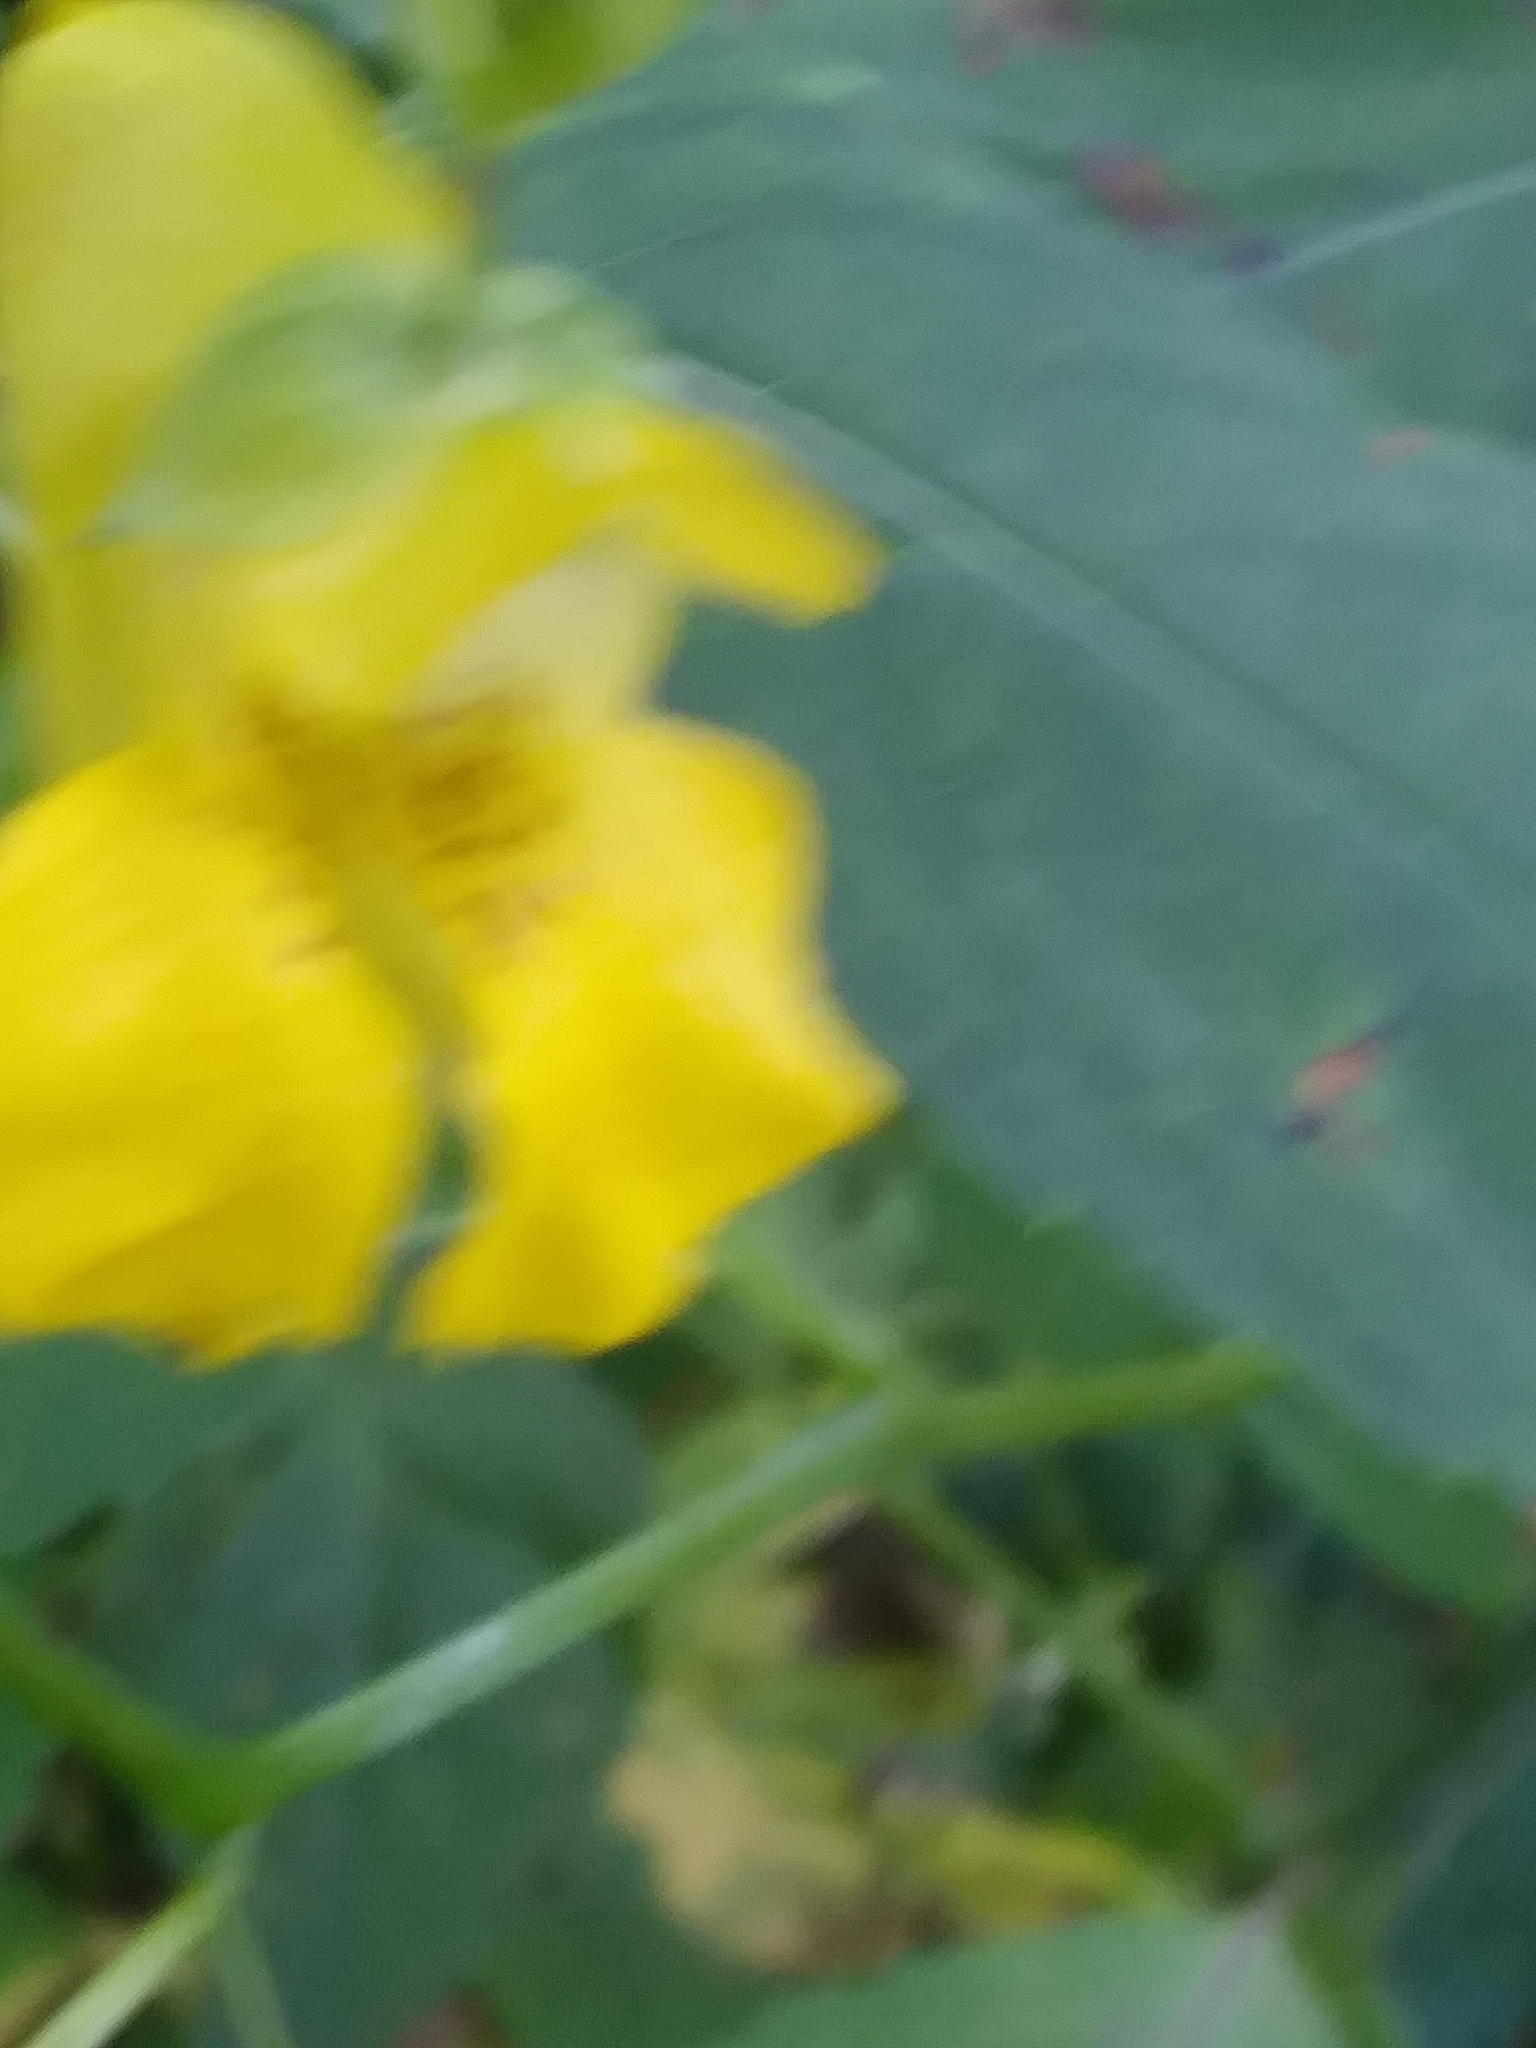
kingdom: Plantae
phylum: Tracheophyta
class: Magnoliopsida
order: Ericales
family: Balsaminaceae
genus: Impatiens
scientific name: Impatiens pallida
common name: Pale snapweed
